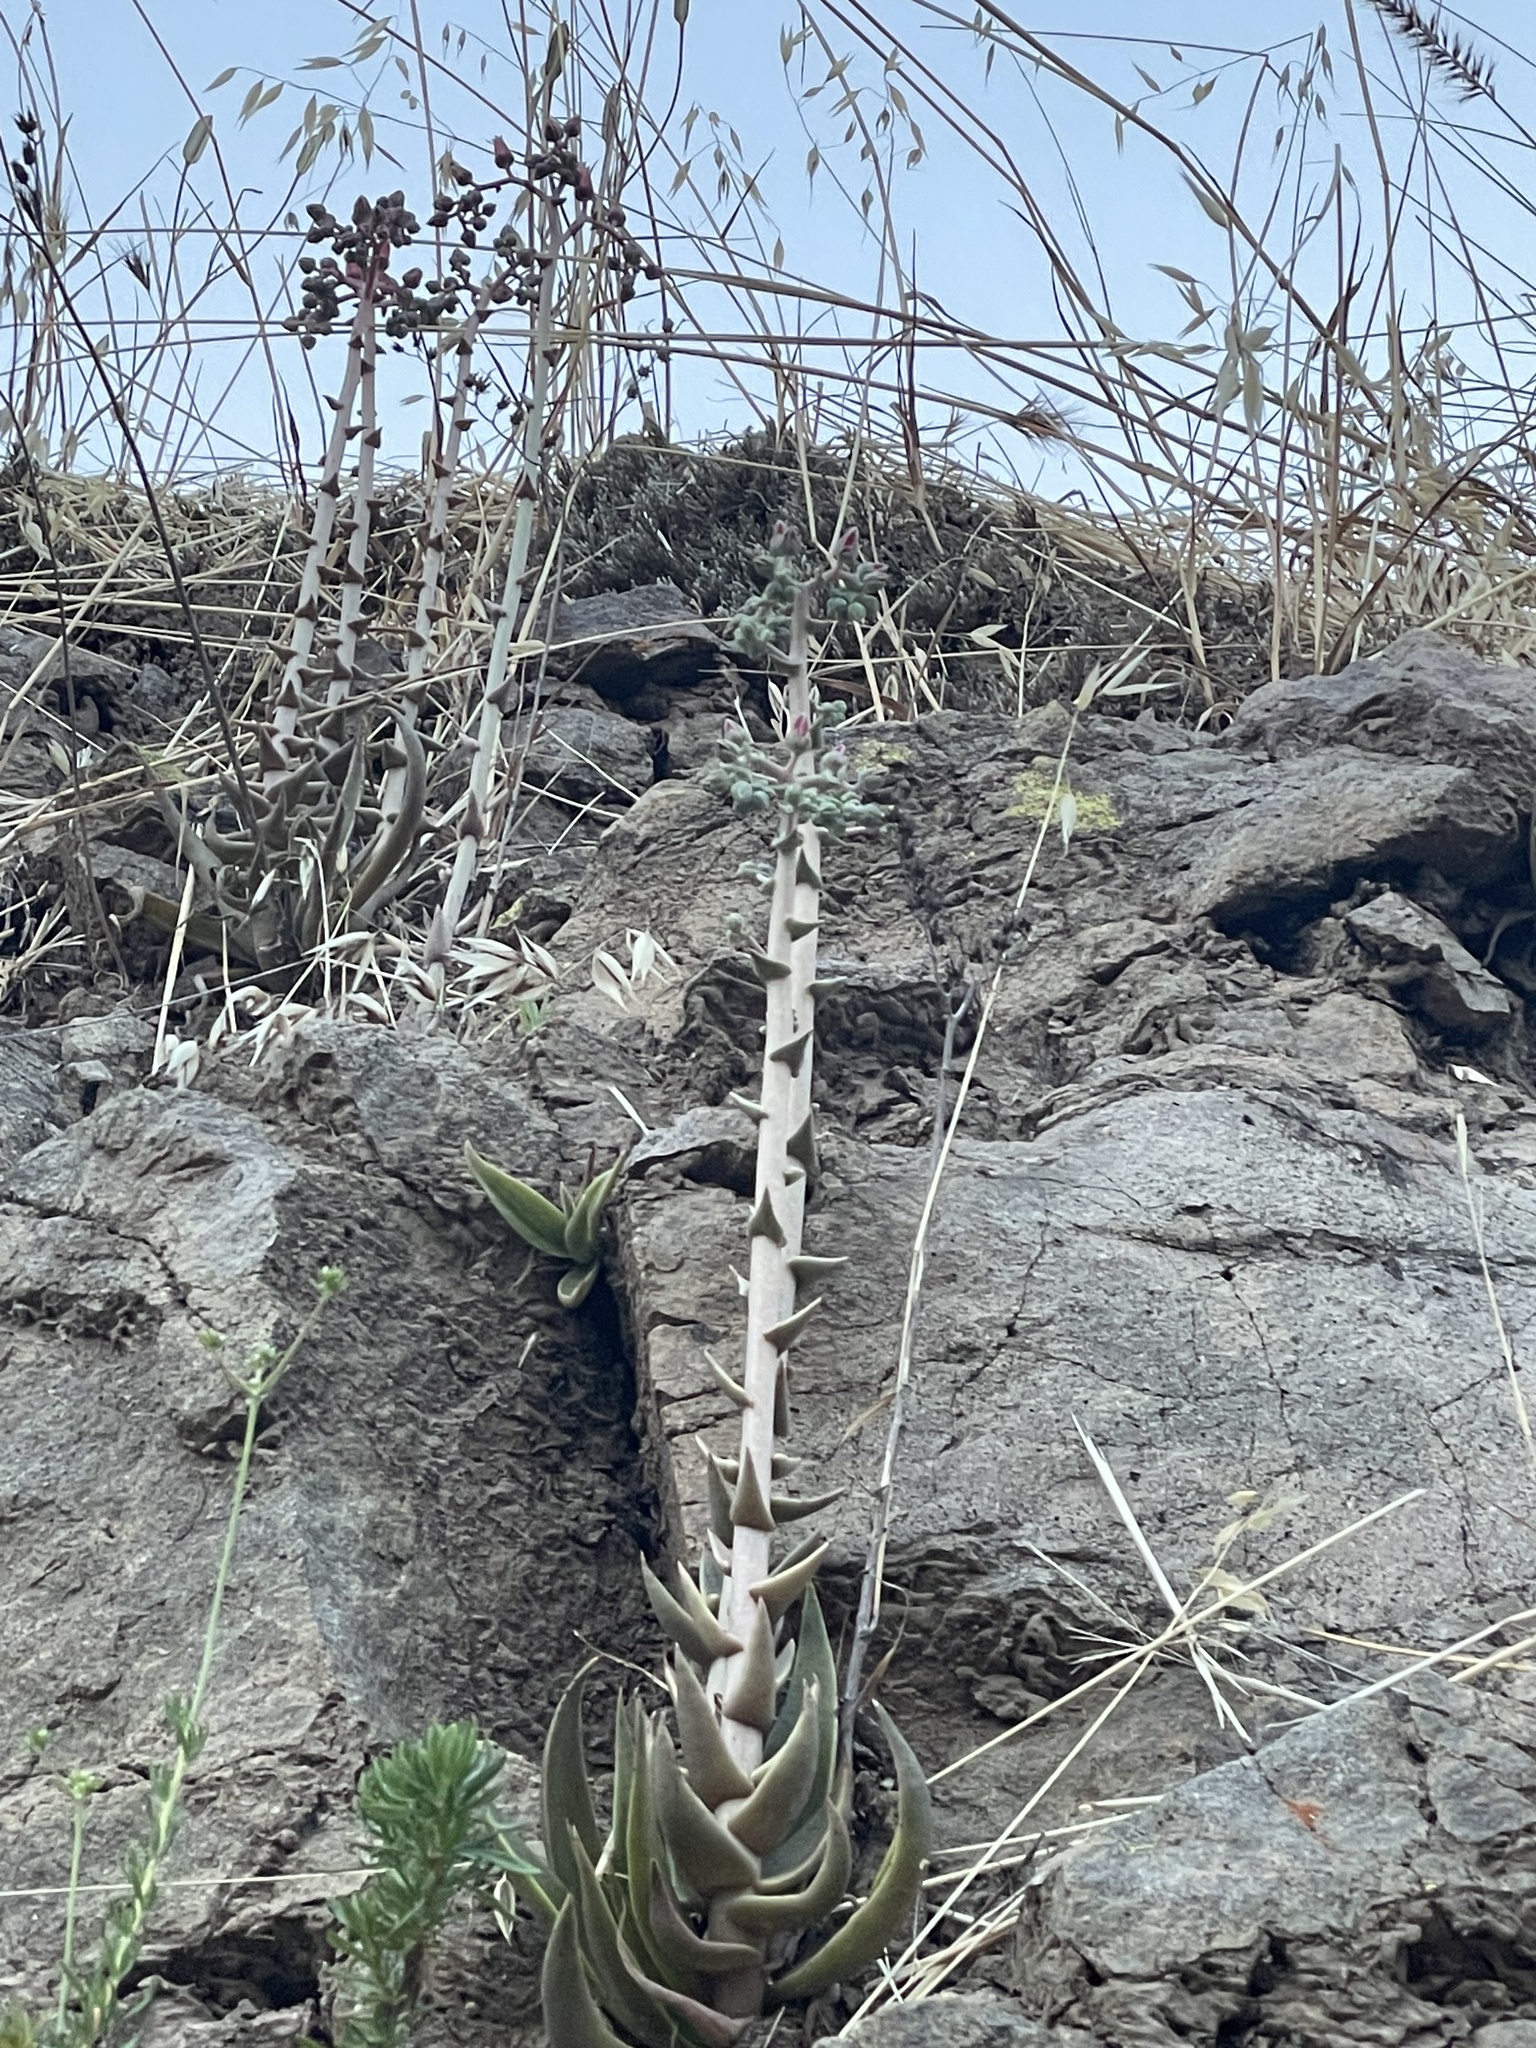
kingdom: Plantae
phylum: Tracheophyta
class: Magnoliopsida
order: Saxifragales
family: Crassulaceae
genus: Dudleya
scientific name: Dudleya lanceolata
